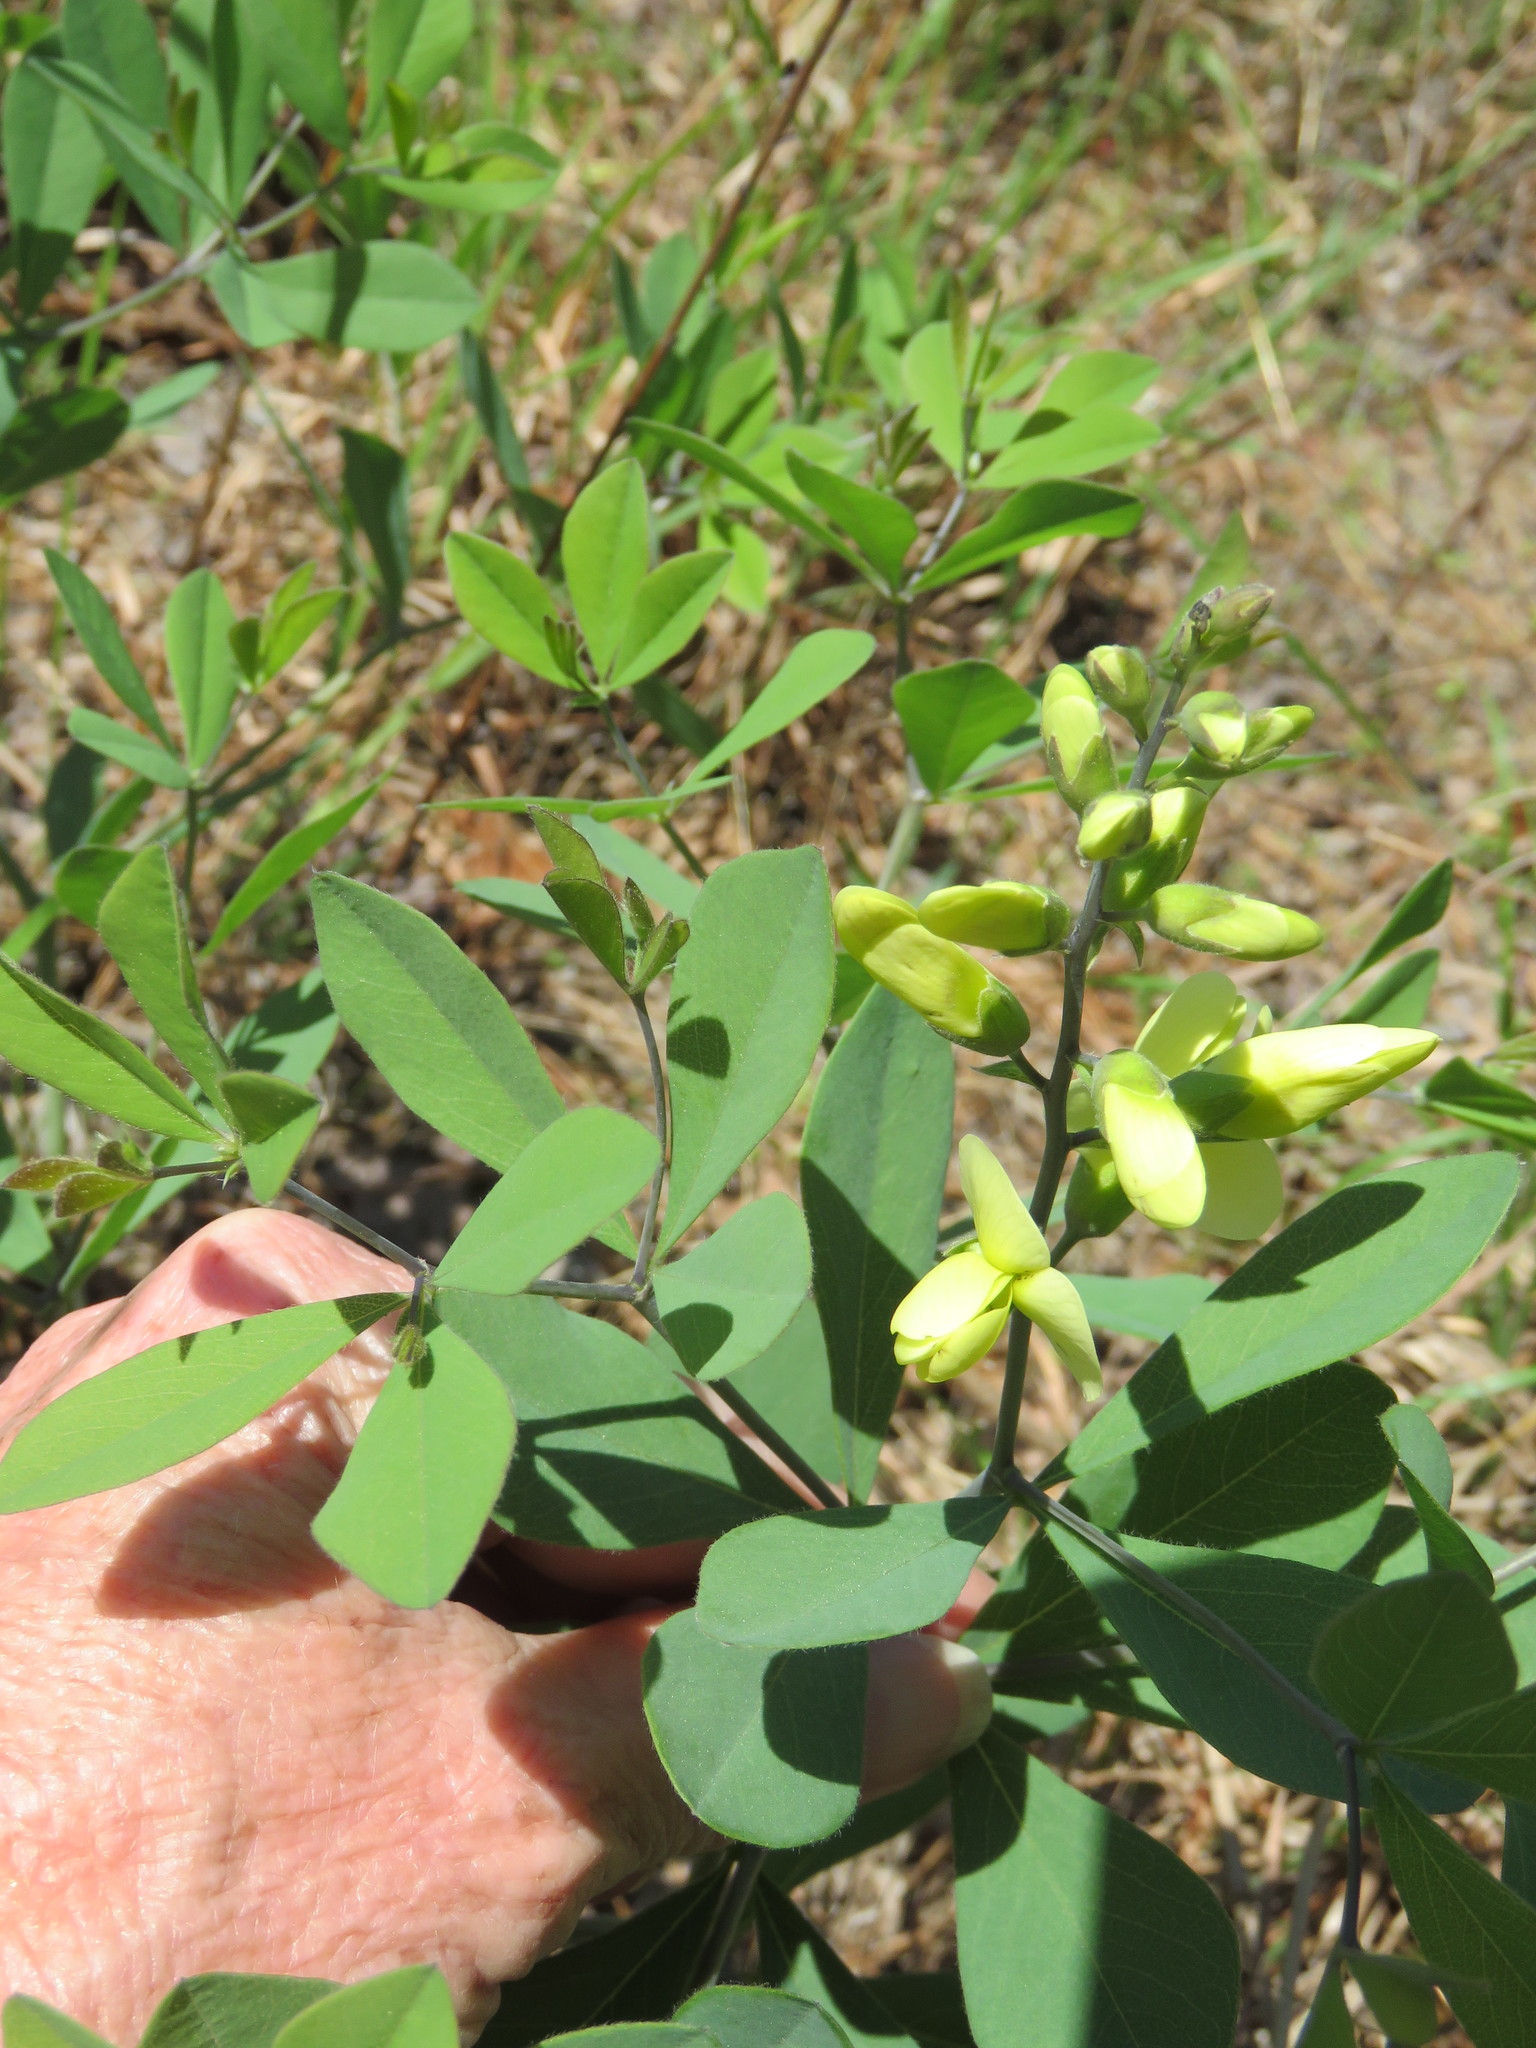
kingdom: Plantae
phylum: Tracheophyta
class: Magnoliopsida
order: Fabales
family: Fabaceae
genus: Baptisia
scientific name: Baptisia sphaerocarpa
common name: Round wild indigo
